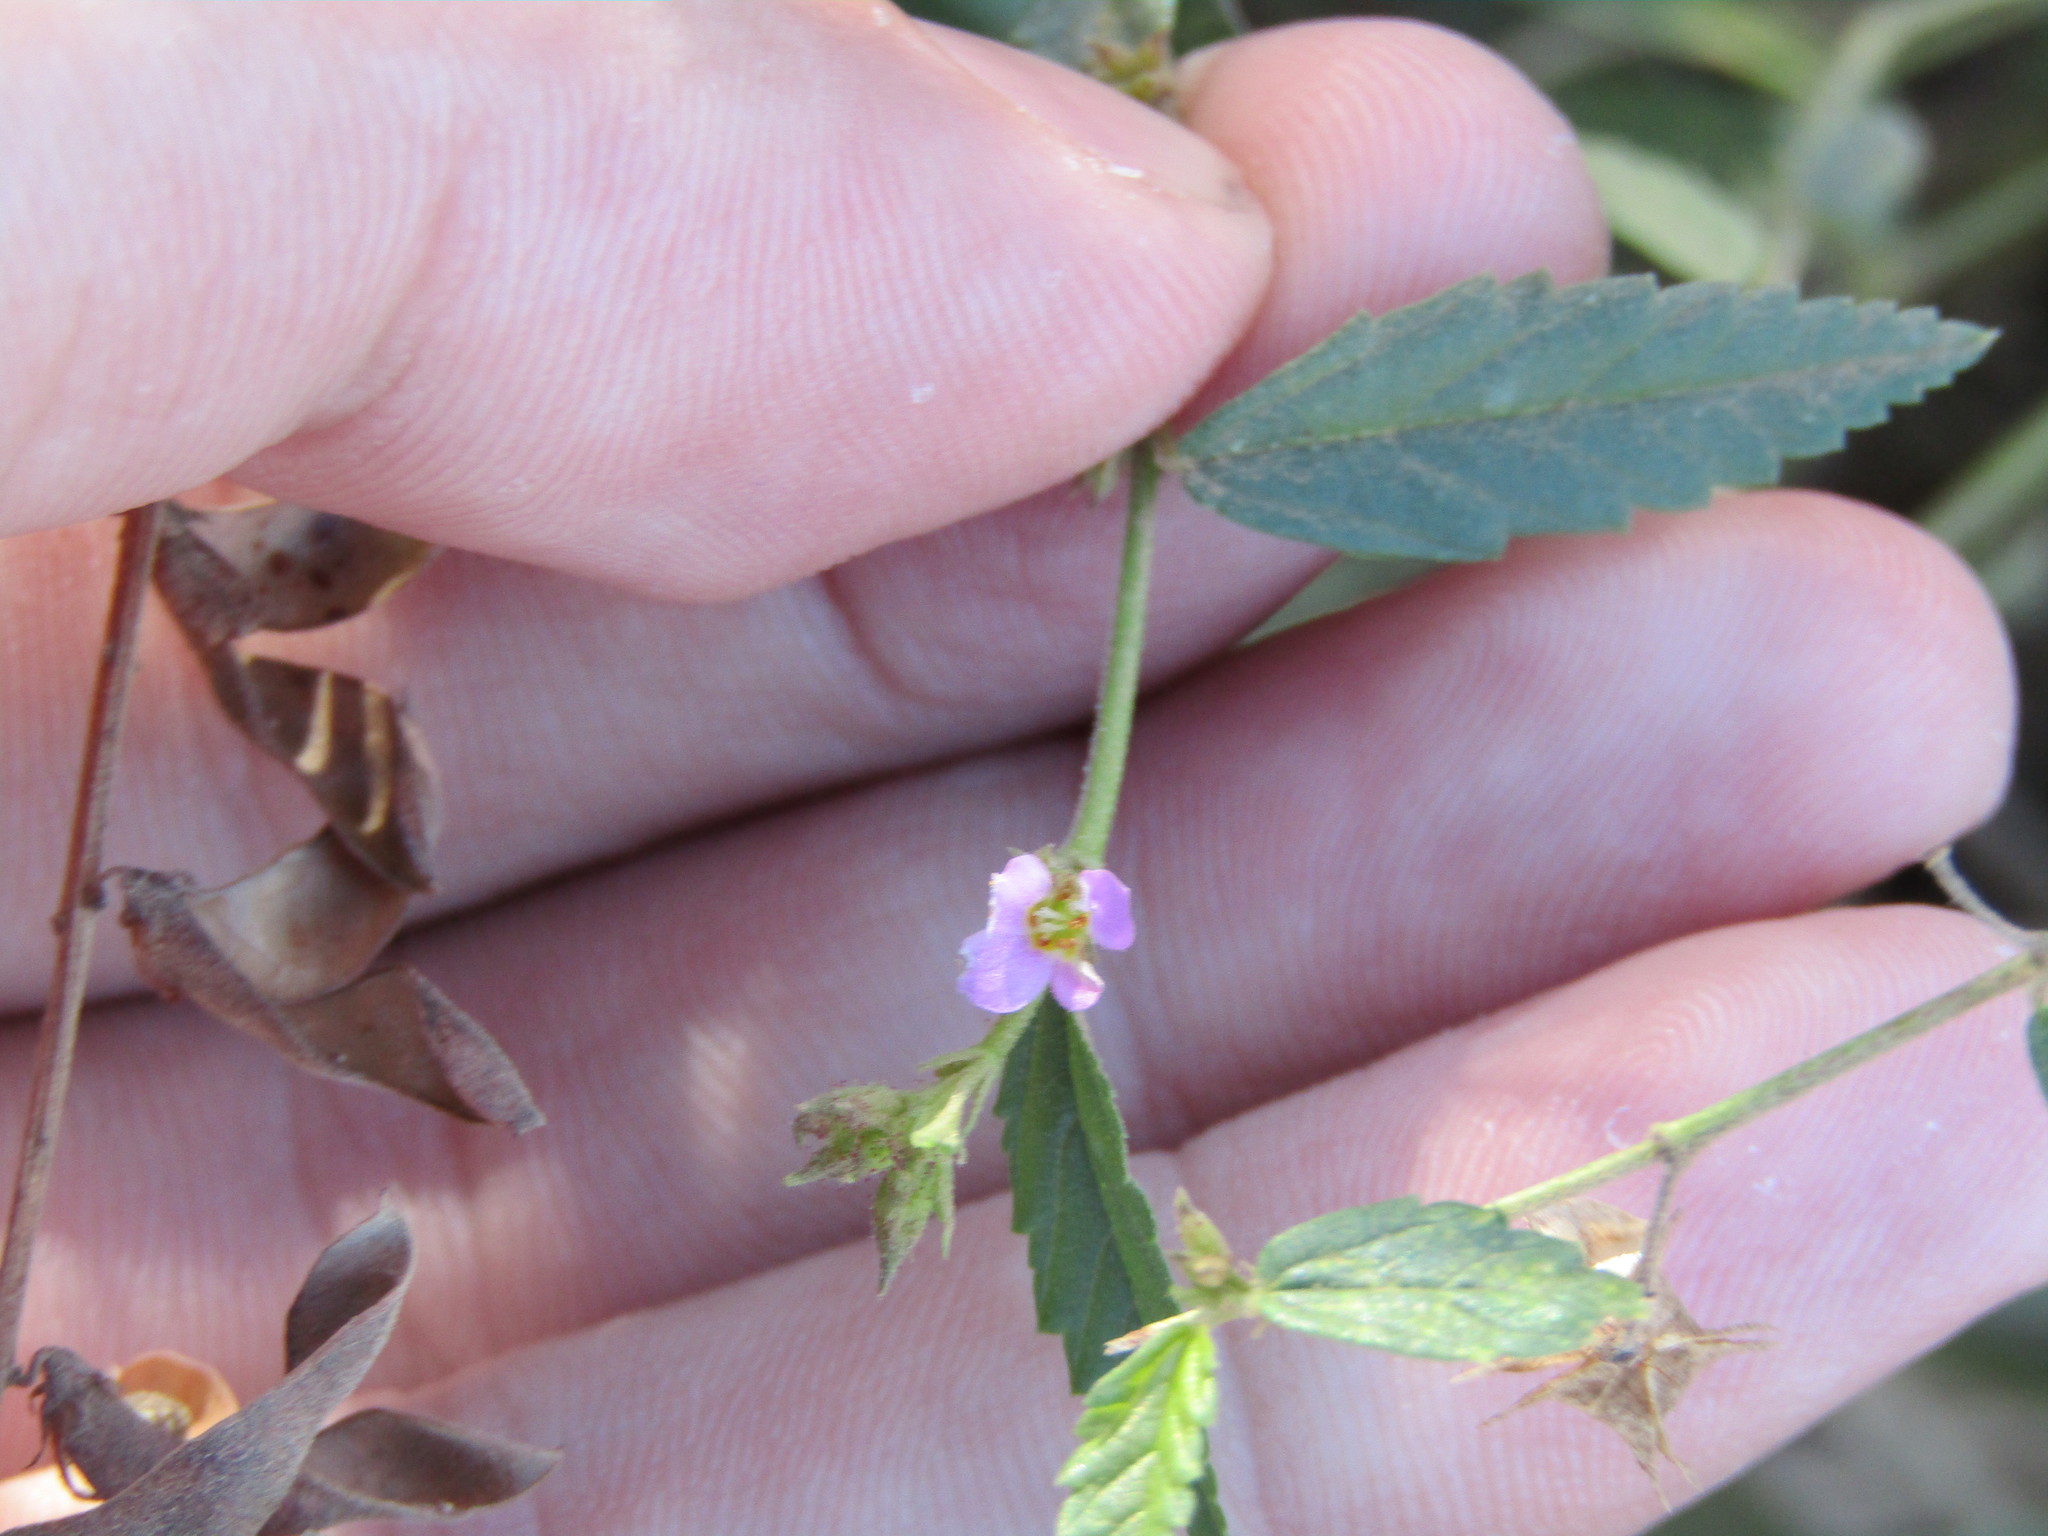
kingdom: Plantae
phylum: Tracheophyta
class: Magnoliopsida
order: Malvales
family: Malvaceae
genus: Melochia
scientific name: Melochia pyramidata
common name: Pyramidflower
